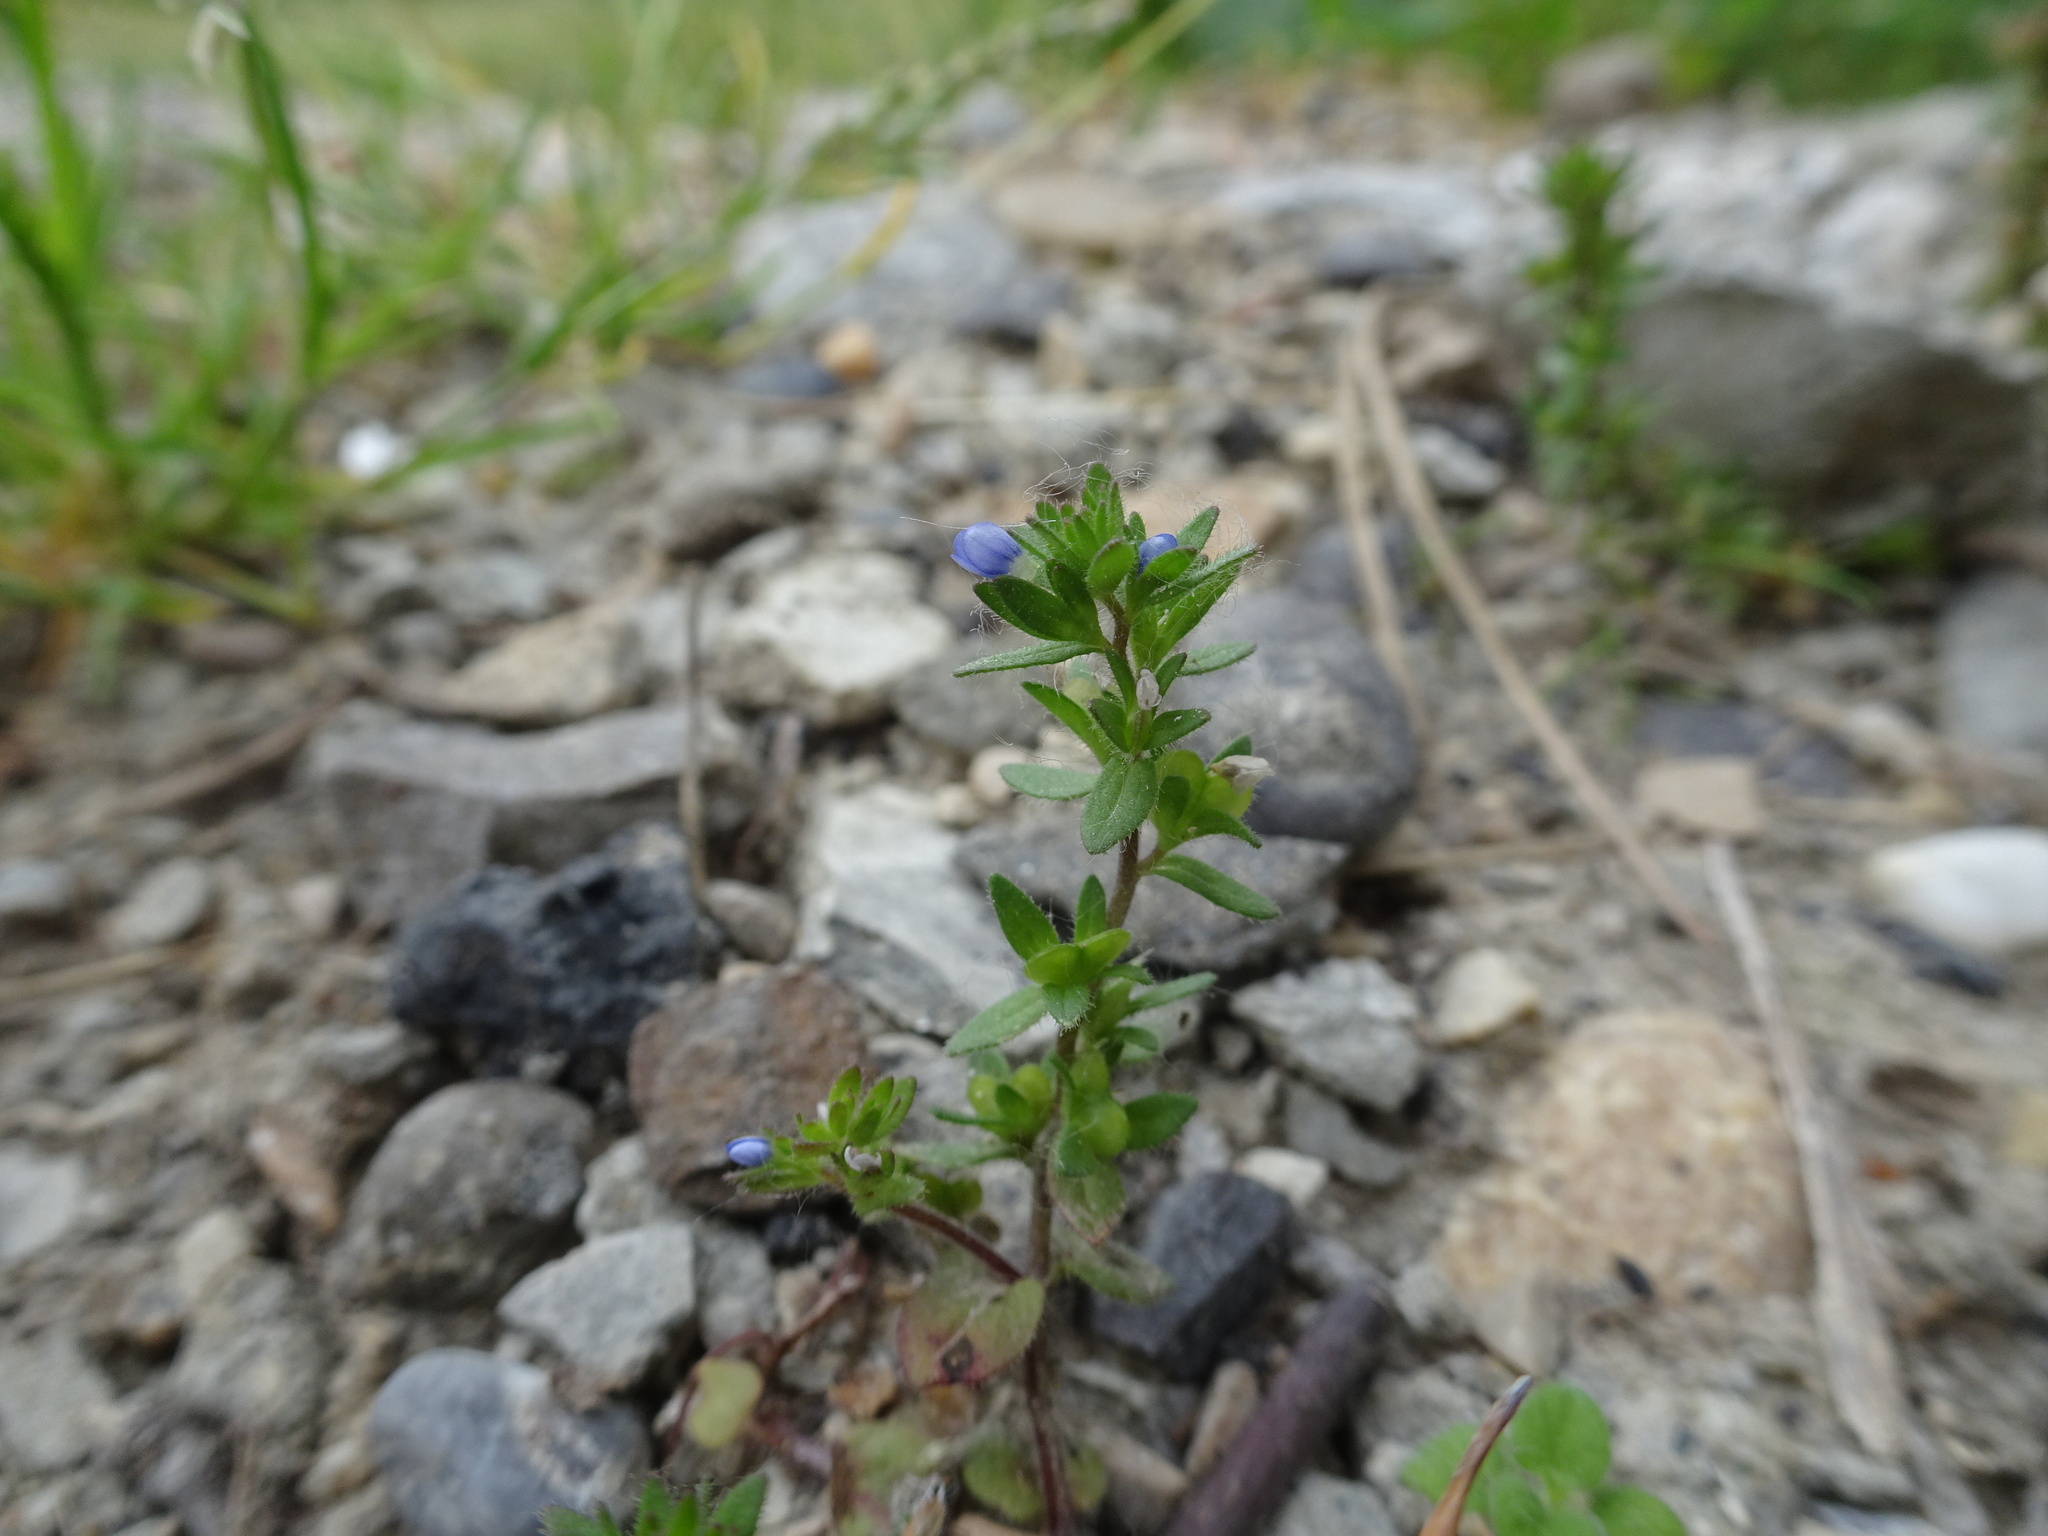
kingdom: Plantae
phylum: Tracheophyta
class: Magnoliopsida
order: Lamiales
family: Plantaginaceae
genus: Veronica
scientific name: Veronica arvensis
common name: Corn speedwell
